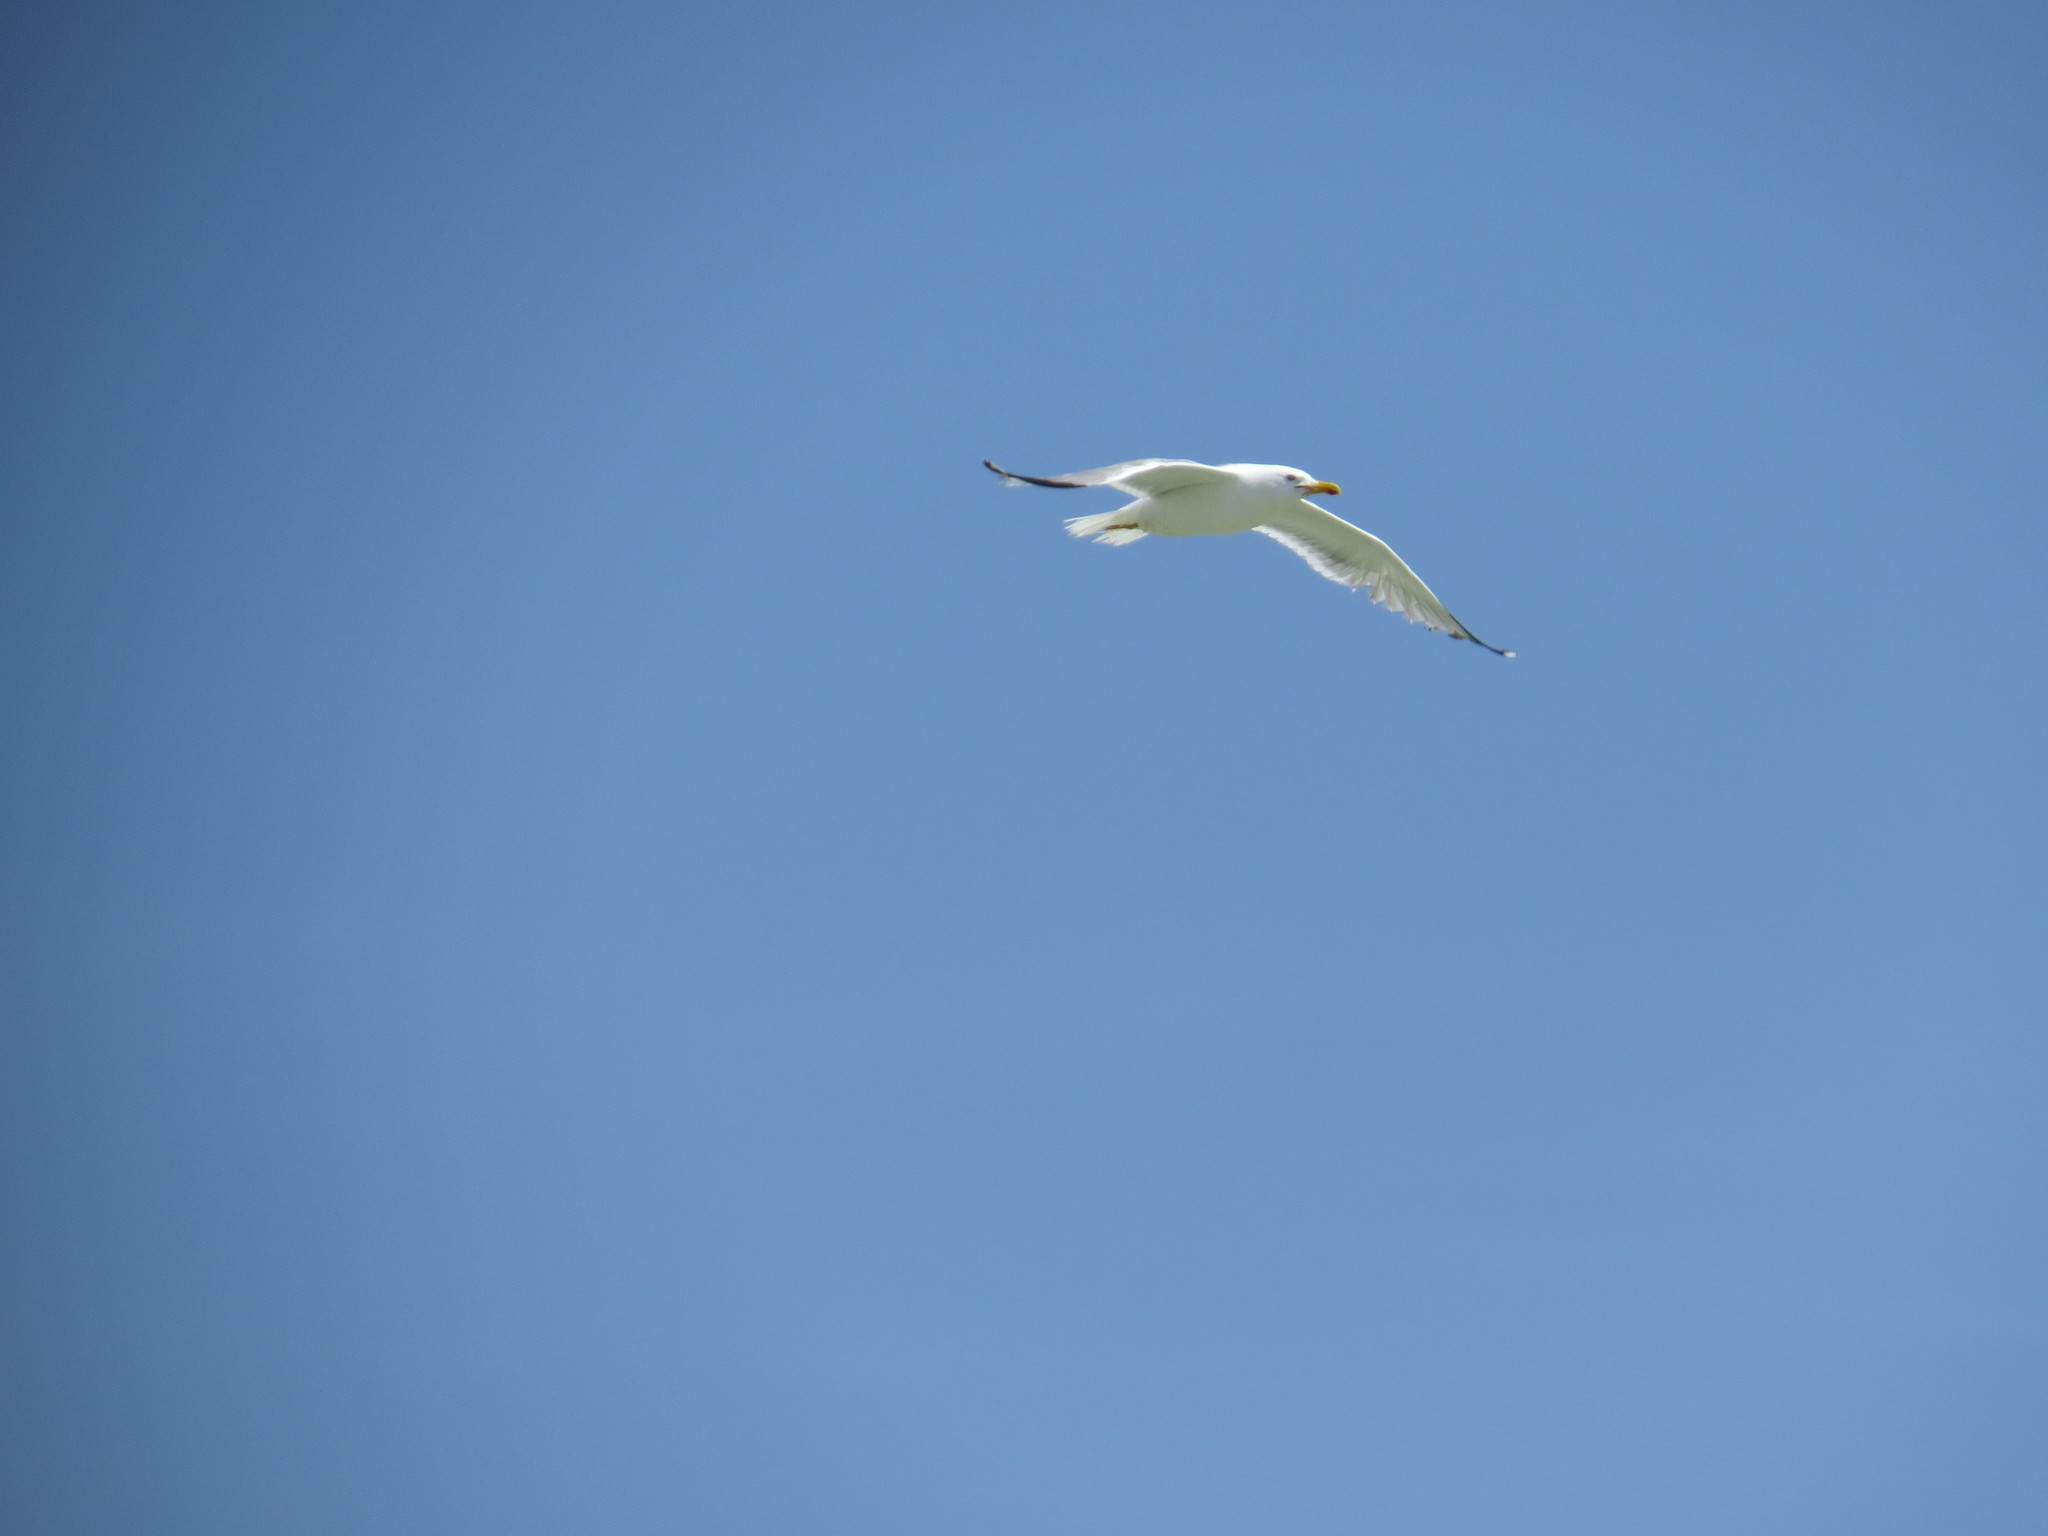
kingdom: Animalia
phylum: Chordata
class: Aves
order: Charadriiformes
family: Laridae
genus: Larus
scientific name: Larus michahellis
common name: Yellow-legged gull
